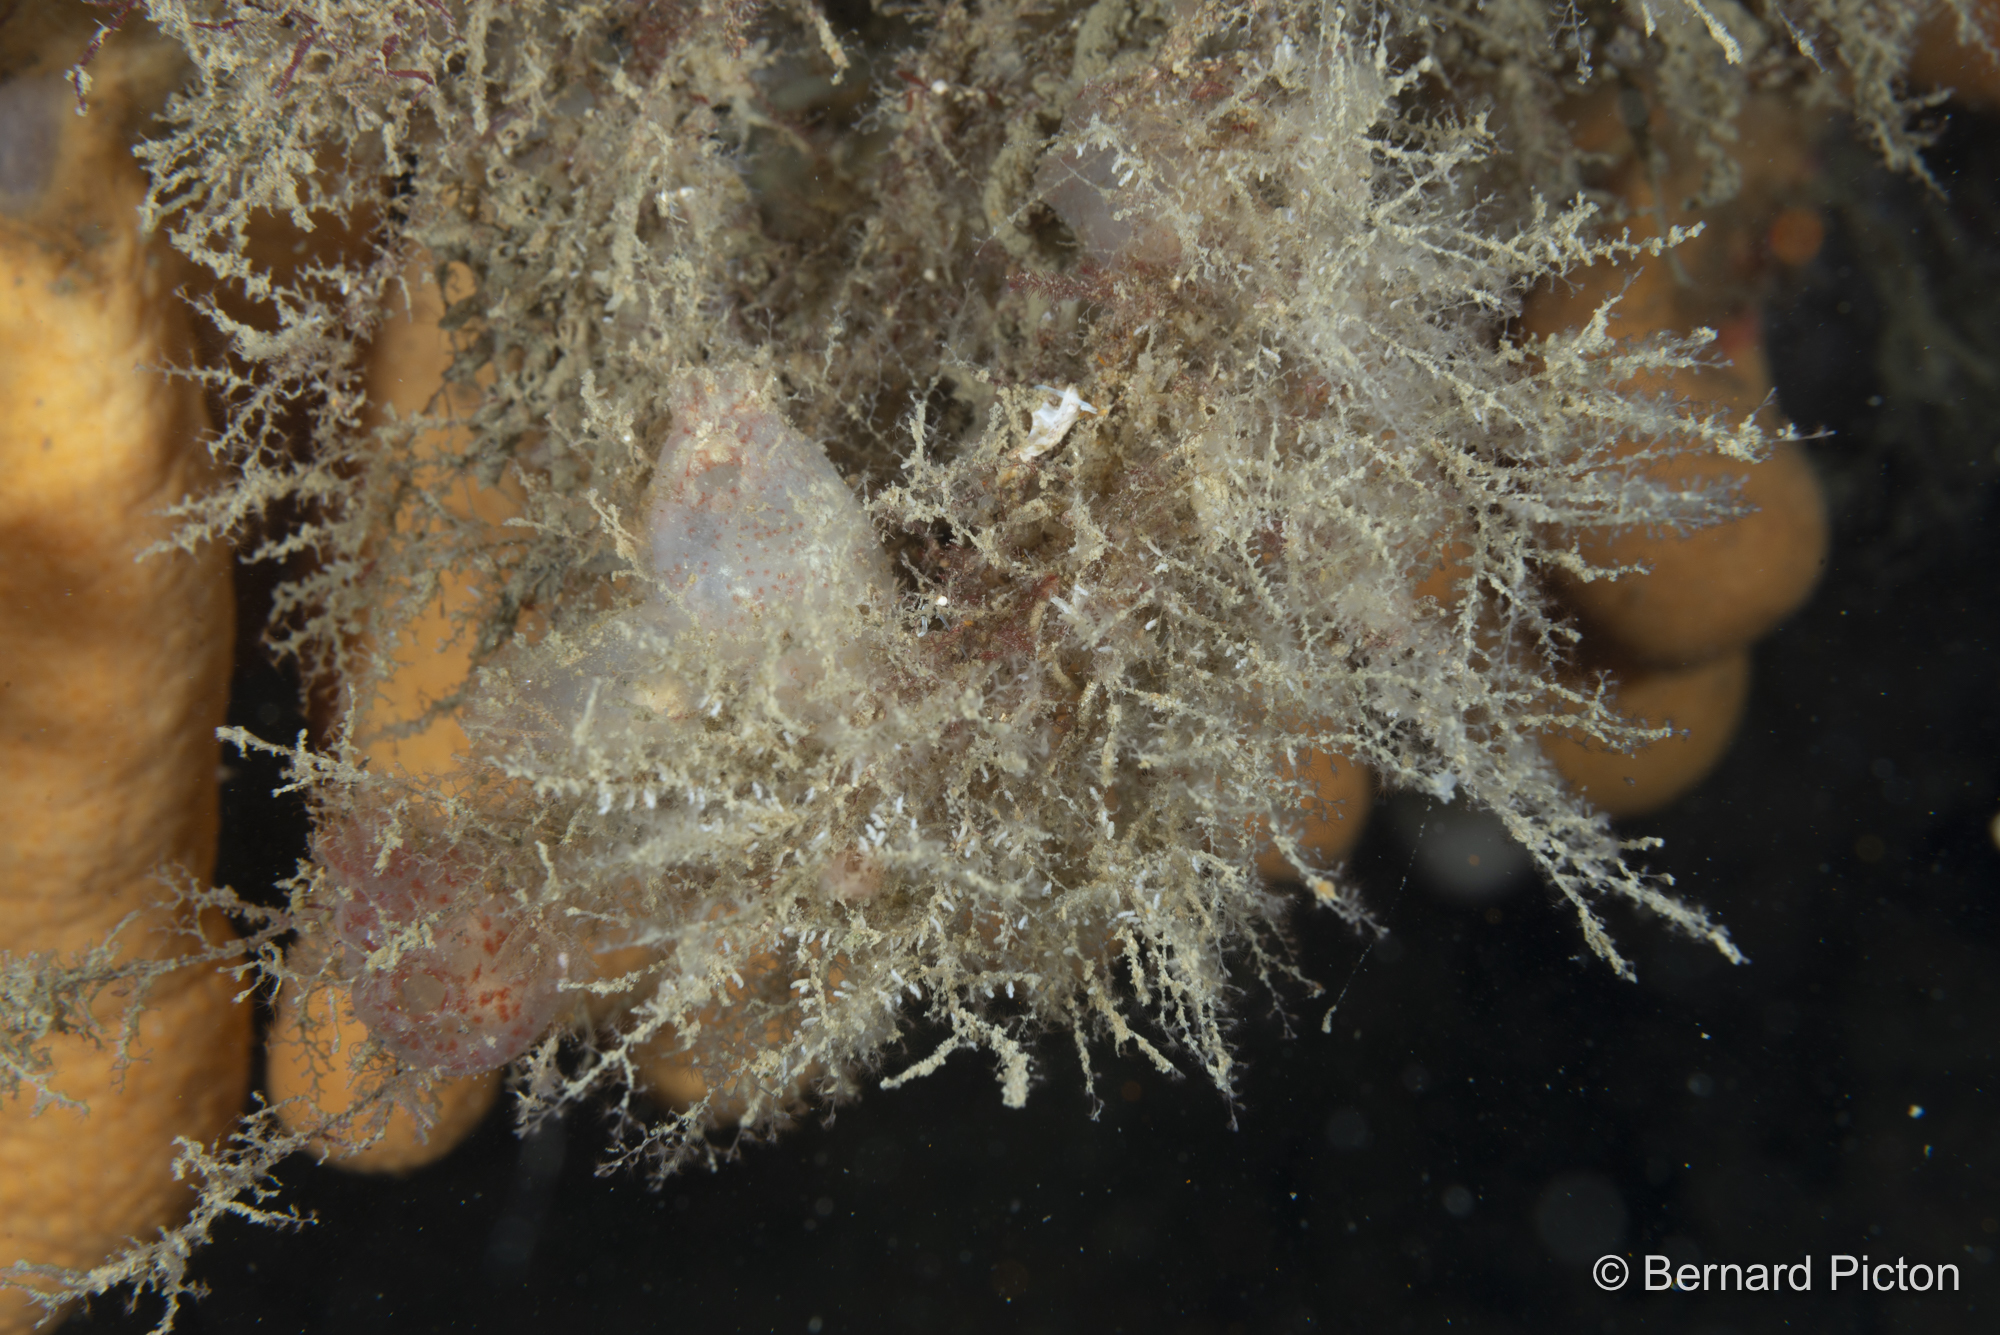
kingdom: Animalia
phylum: Cnidaria
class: Hydrozoa
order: Leptothecata
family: Haleciidae
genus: Halecium
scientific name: Halecium beanii
